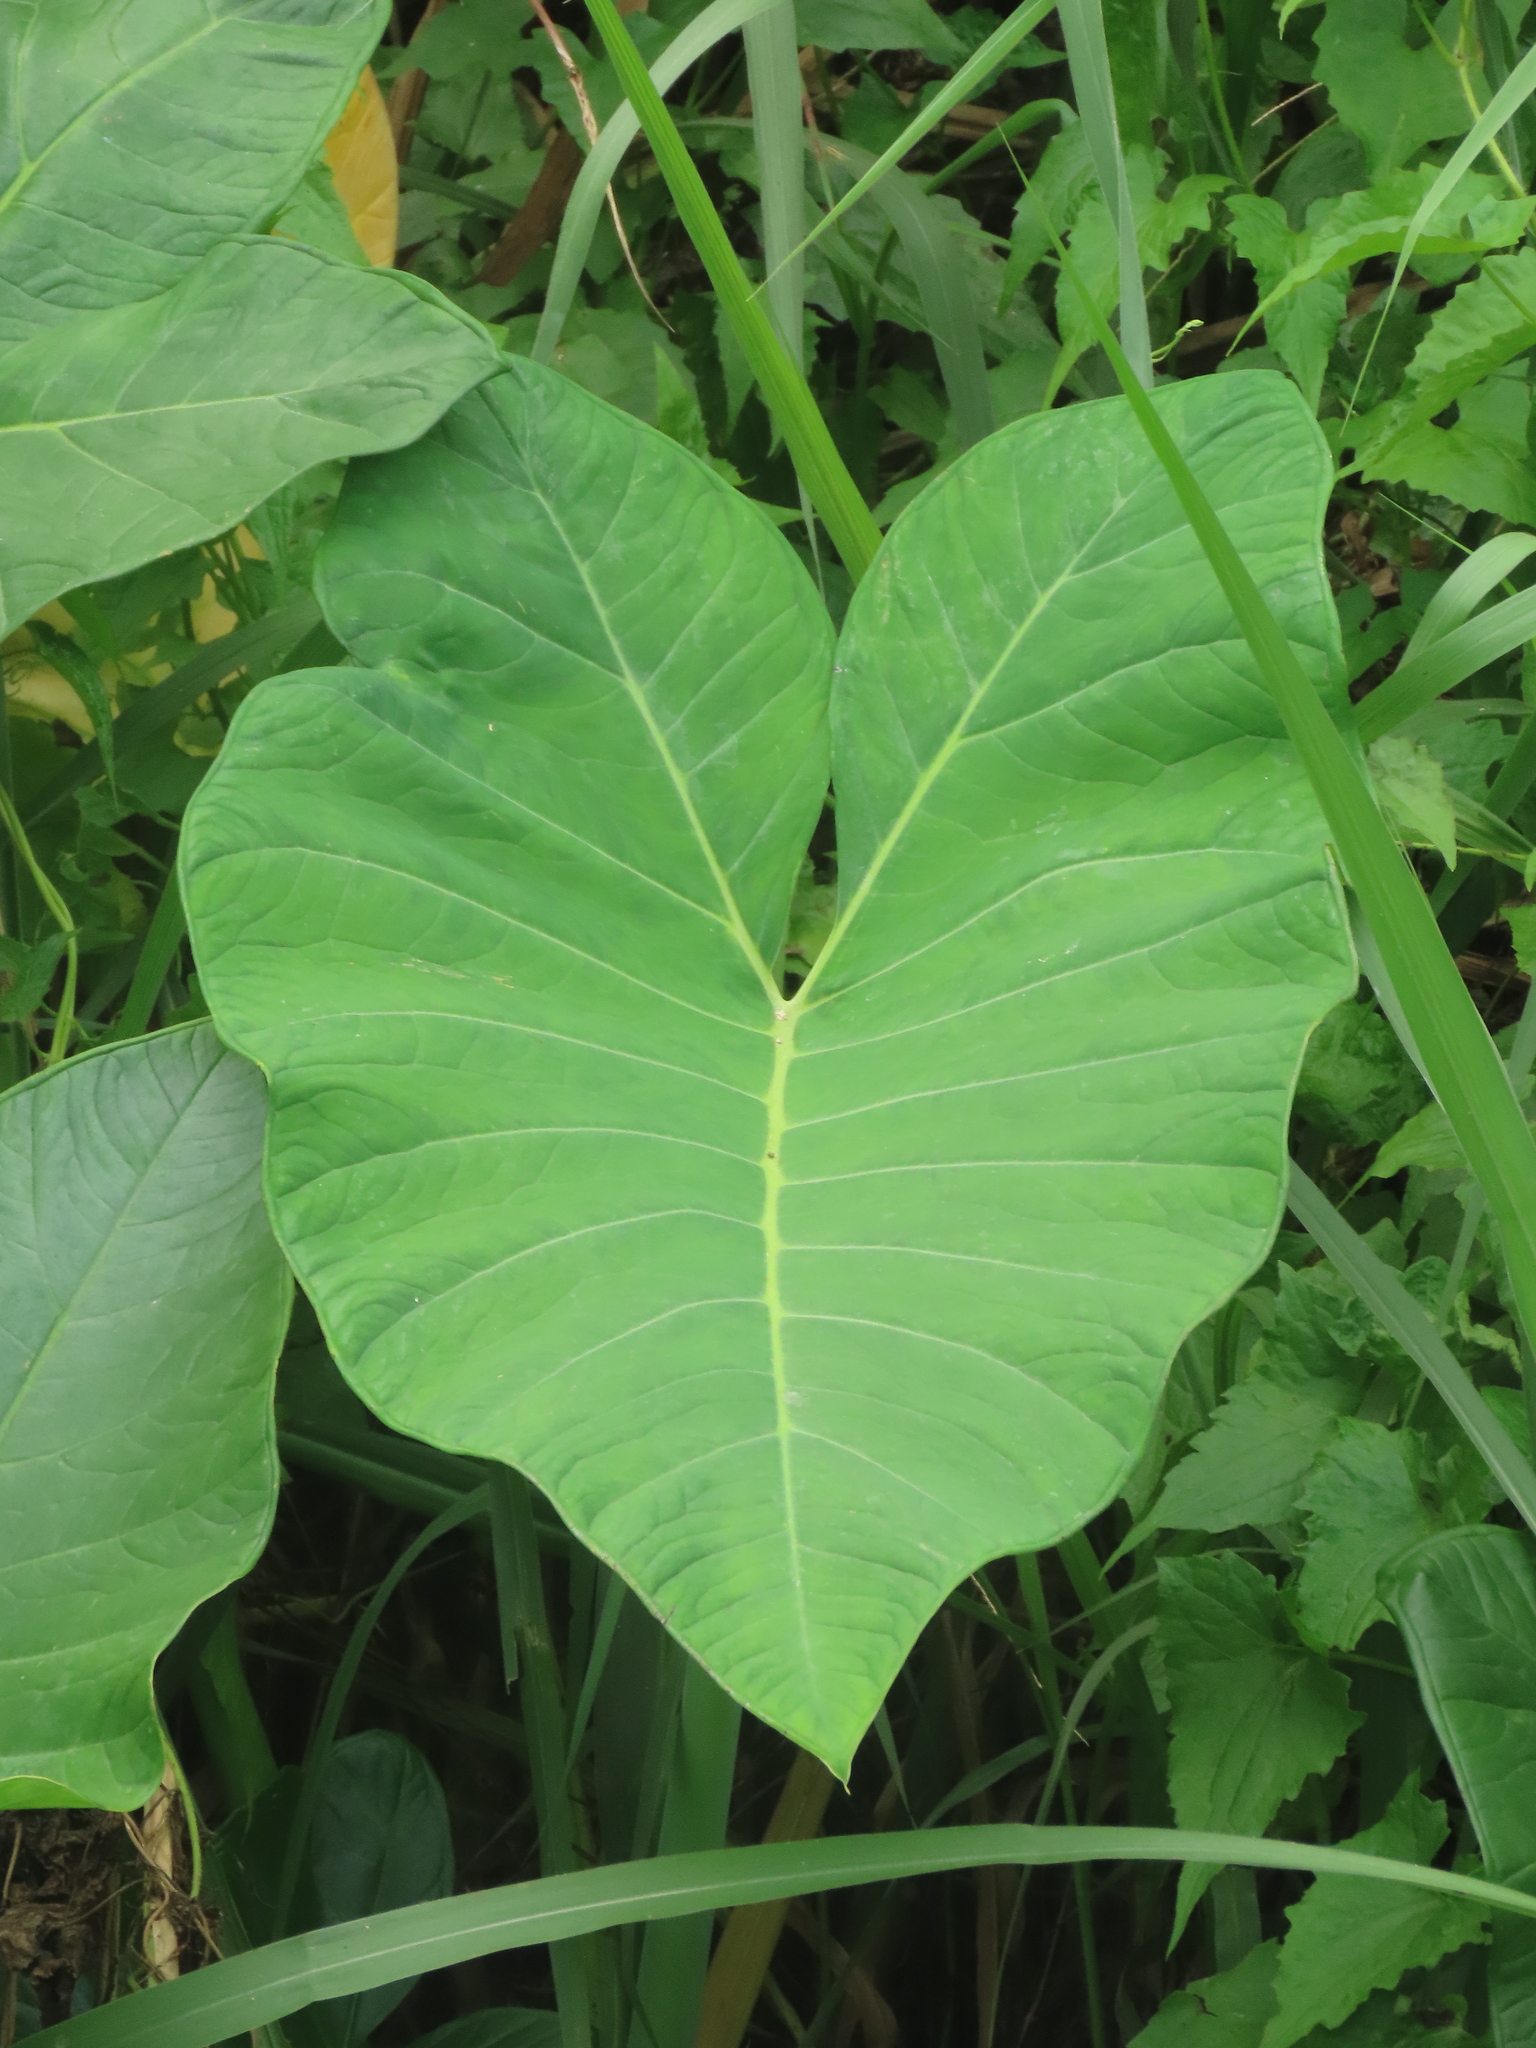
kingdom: Plantae
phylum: Tracheophyta
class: Liliopsida
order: Alismatales
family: Araceae
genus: Xanthosoma
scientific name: Xanthosoma sagittifolium
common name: Arrowleaf elephant's ear
